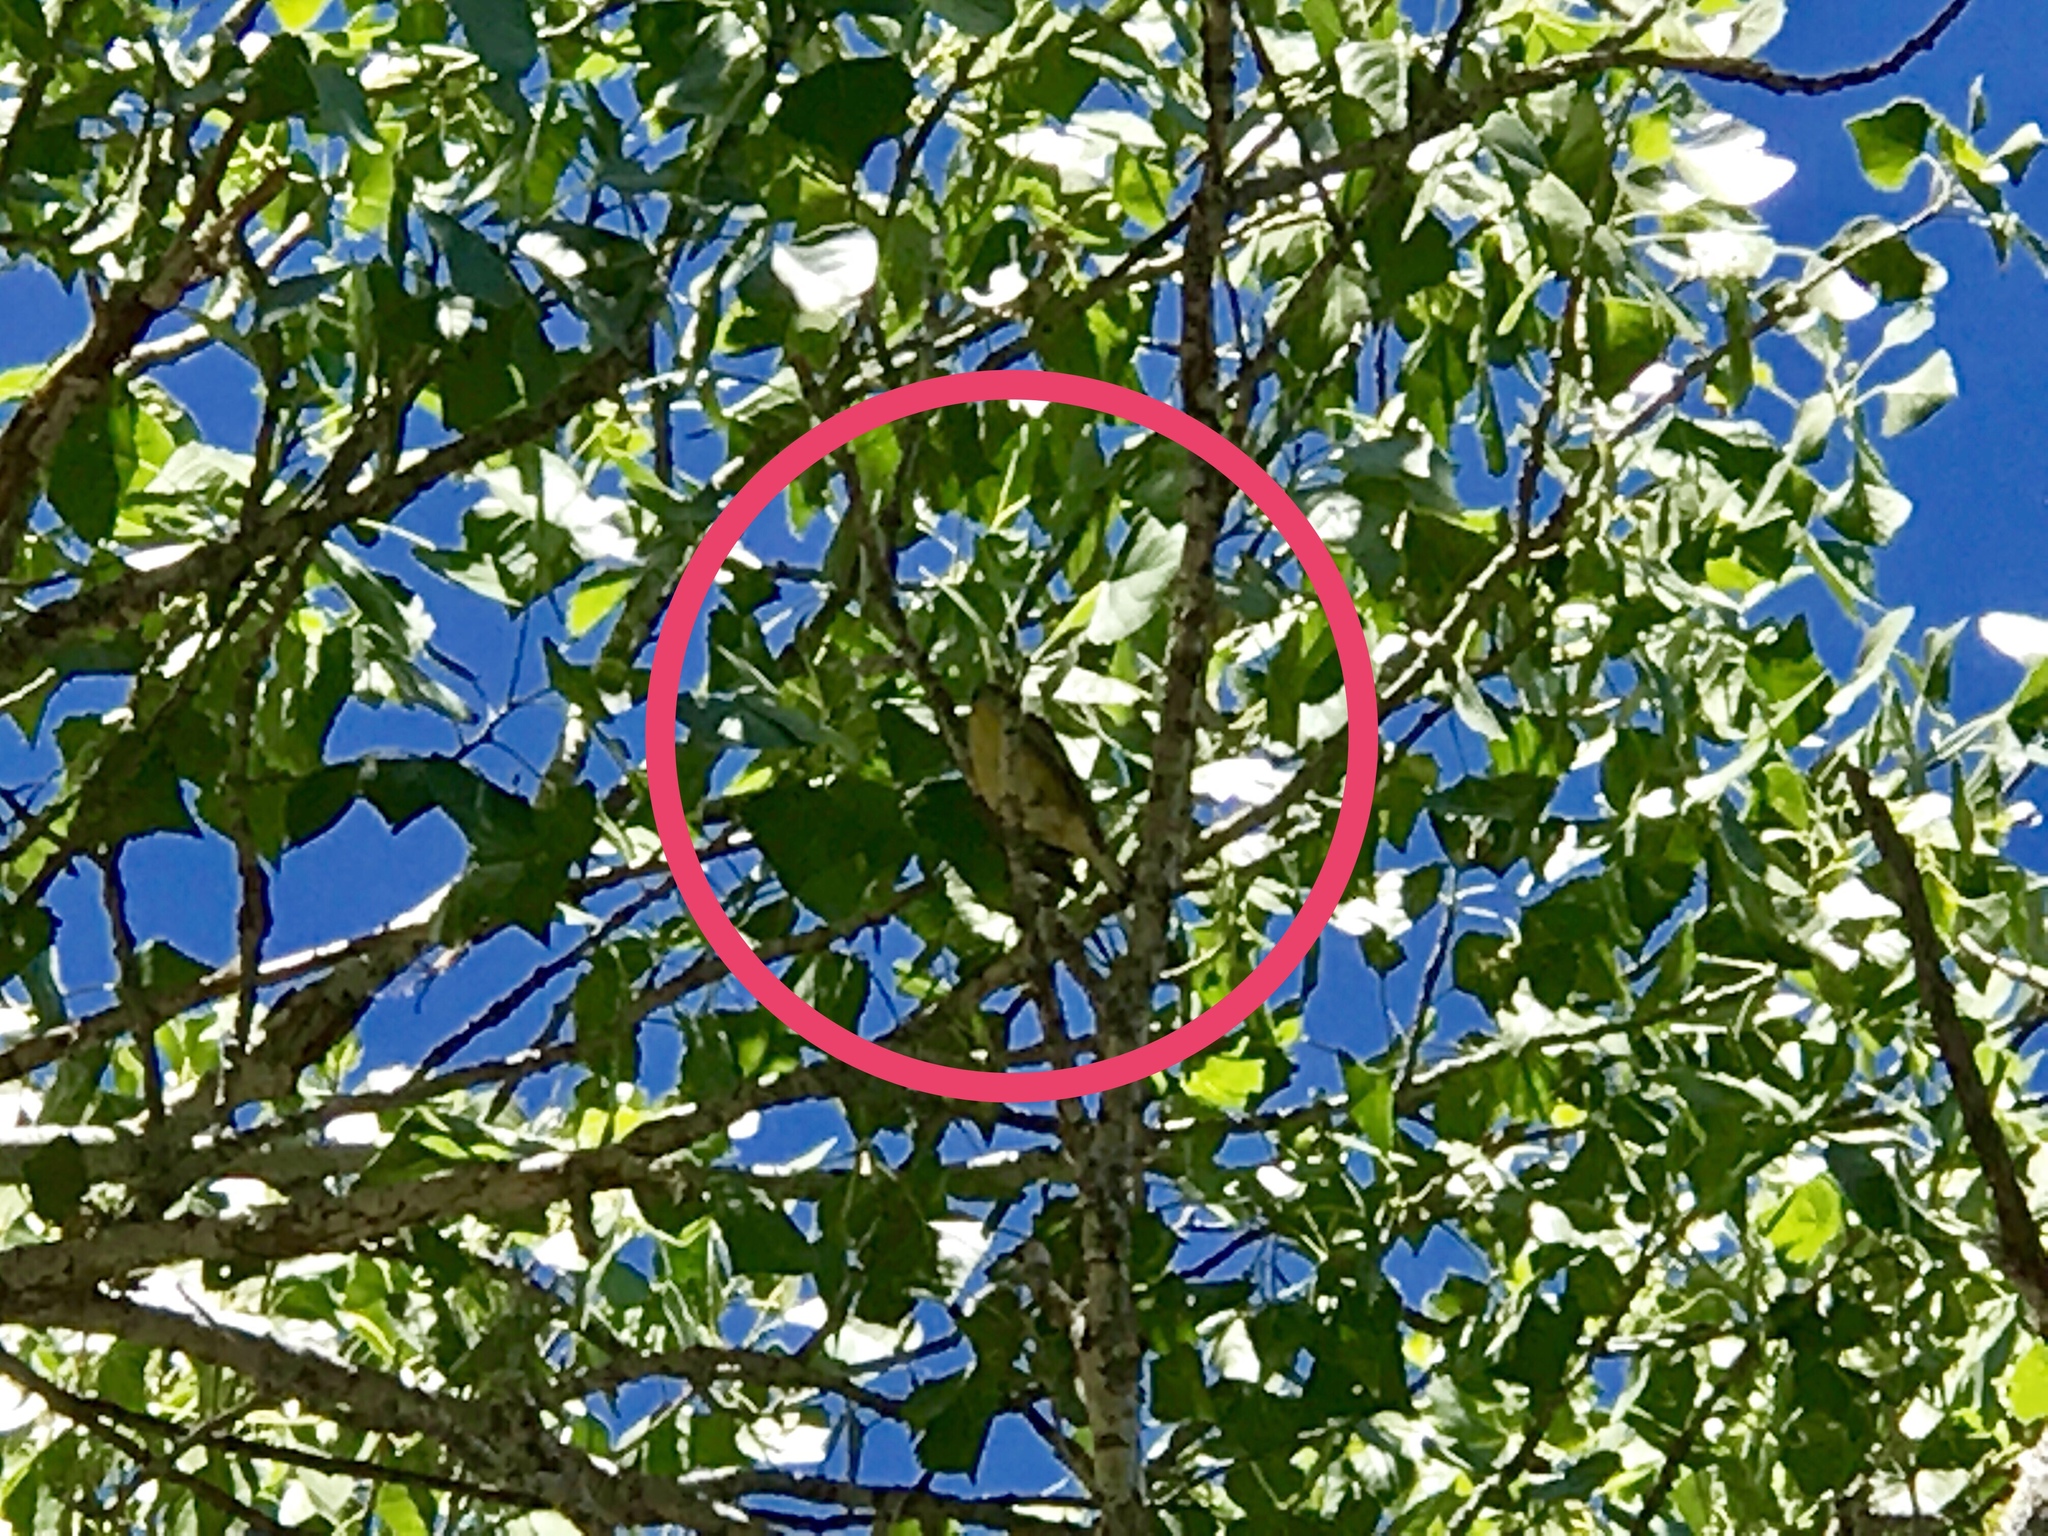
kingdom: Animalia
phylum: Chordata
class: Aves
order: Passeriformes
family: Fringillidae
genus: Spinus
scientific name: Spinus psaltria
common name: Lesser goldfinch
